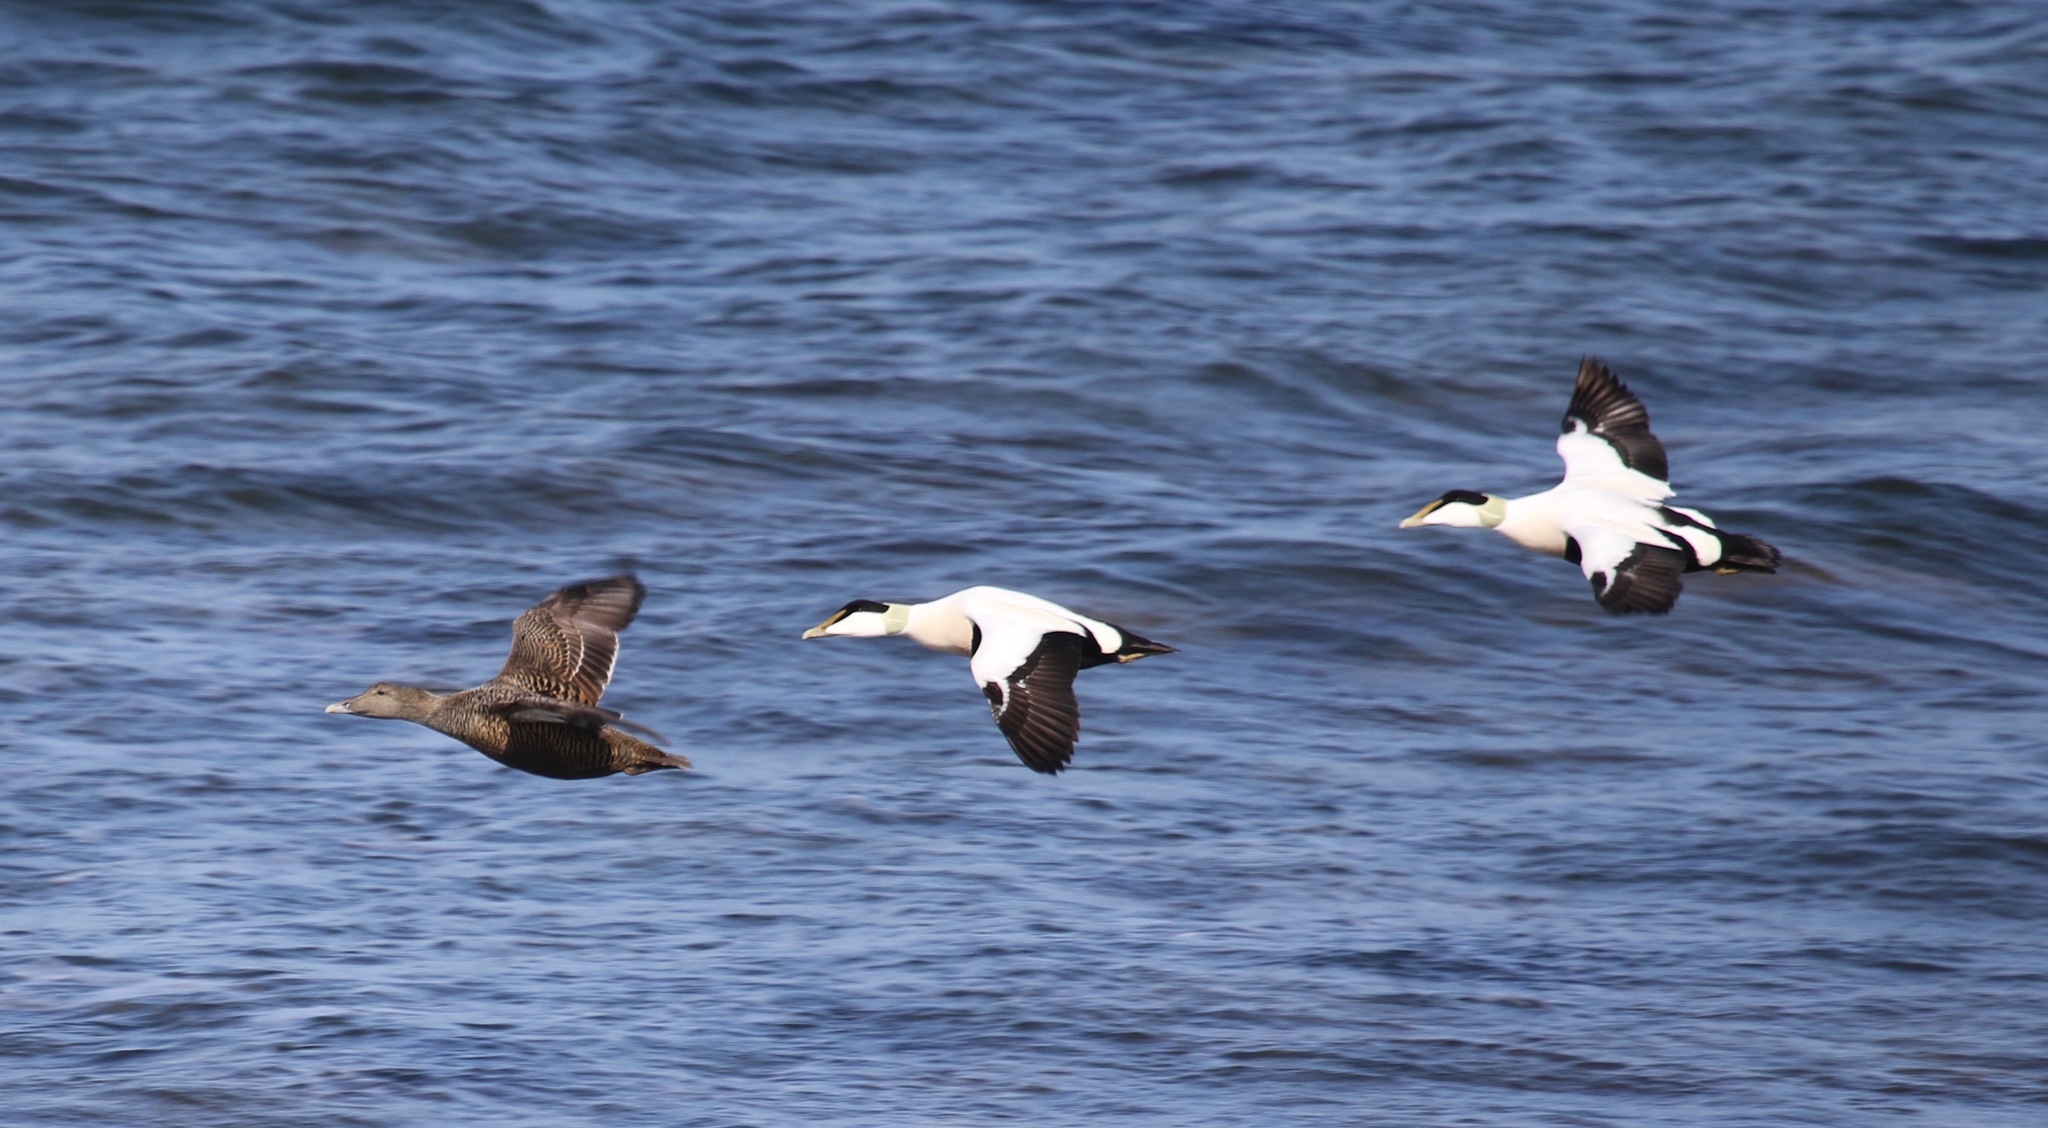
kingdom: Animalia
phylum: Chordata
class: Aves
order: Anseriformes
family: Anatidae
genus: Somateria
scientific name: Somateria mollissima
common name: Common eider
